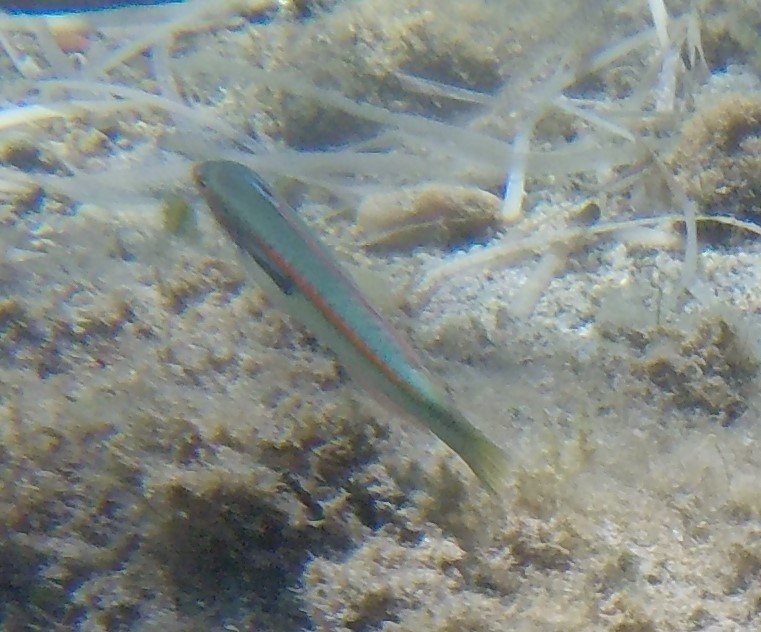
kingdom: Animalia
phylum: Chordata
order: Perciformes
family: Labridae
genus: Coris
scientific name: Coris julis
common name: Rainbow wrasse
